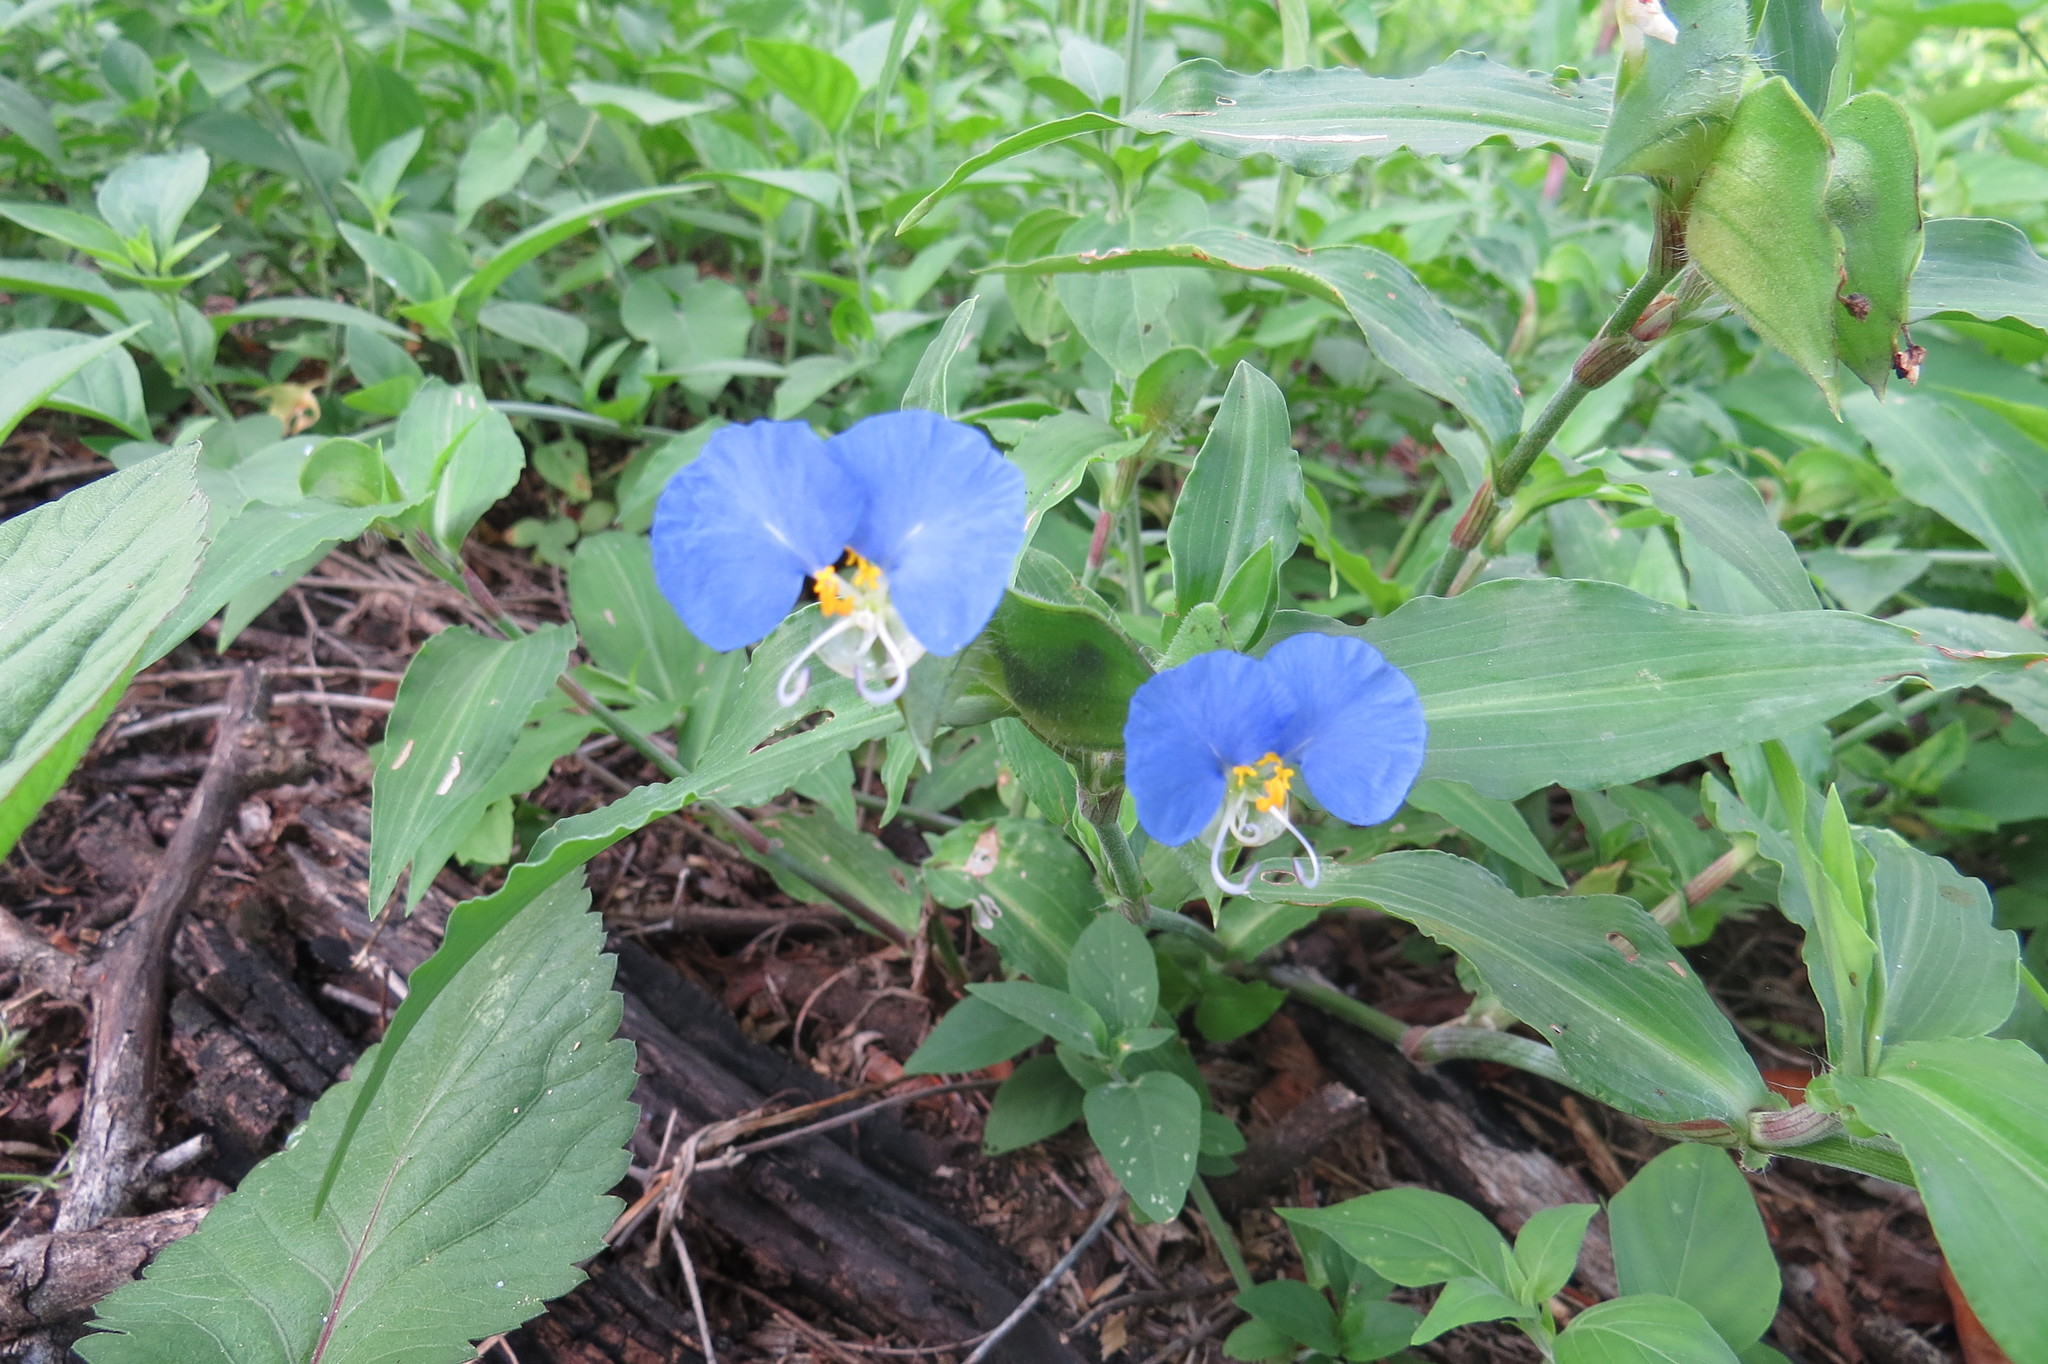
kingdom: Plantae
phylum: Tracheophyta
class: Liliopsida
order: Commelinales
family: Commelinaceae
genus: Commelina
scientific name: Commelina erecta
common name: Blousel blommetjie
